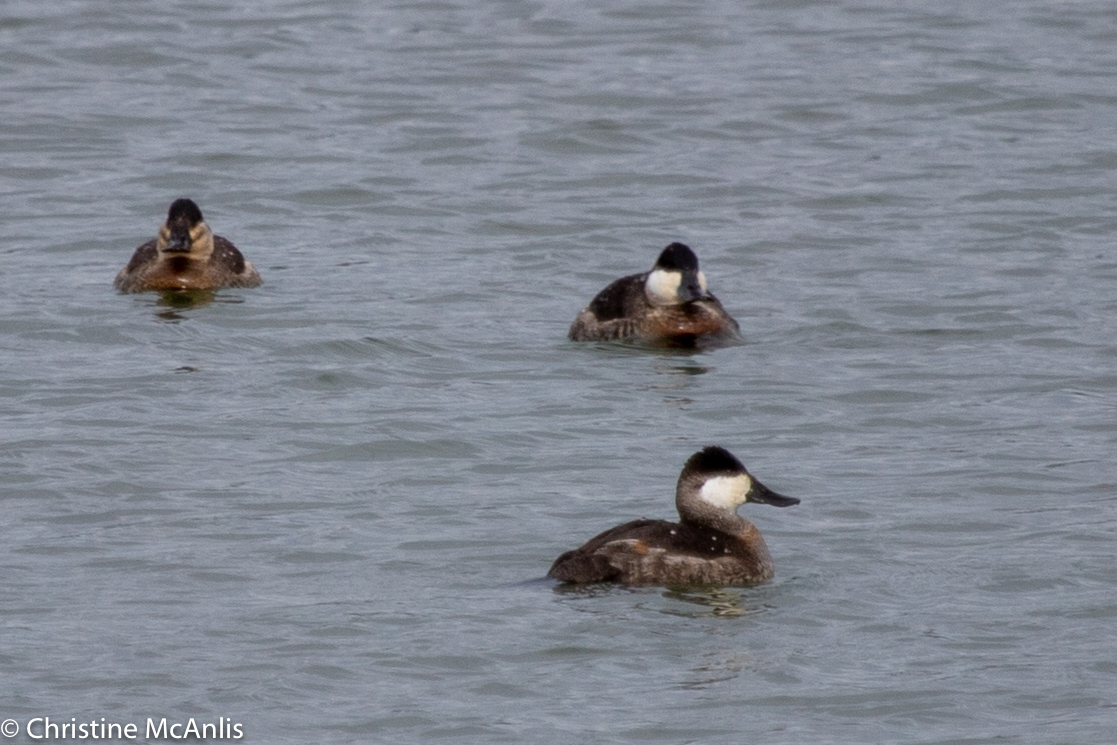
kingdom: Animalia
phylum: Chordata
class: Aves
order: Anseriformes
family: Anatidae
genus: Oxyura
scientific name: Oxyura jamaicensis
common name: Ruddy duck
